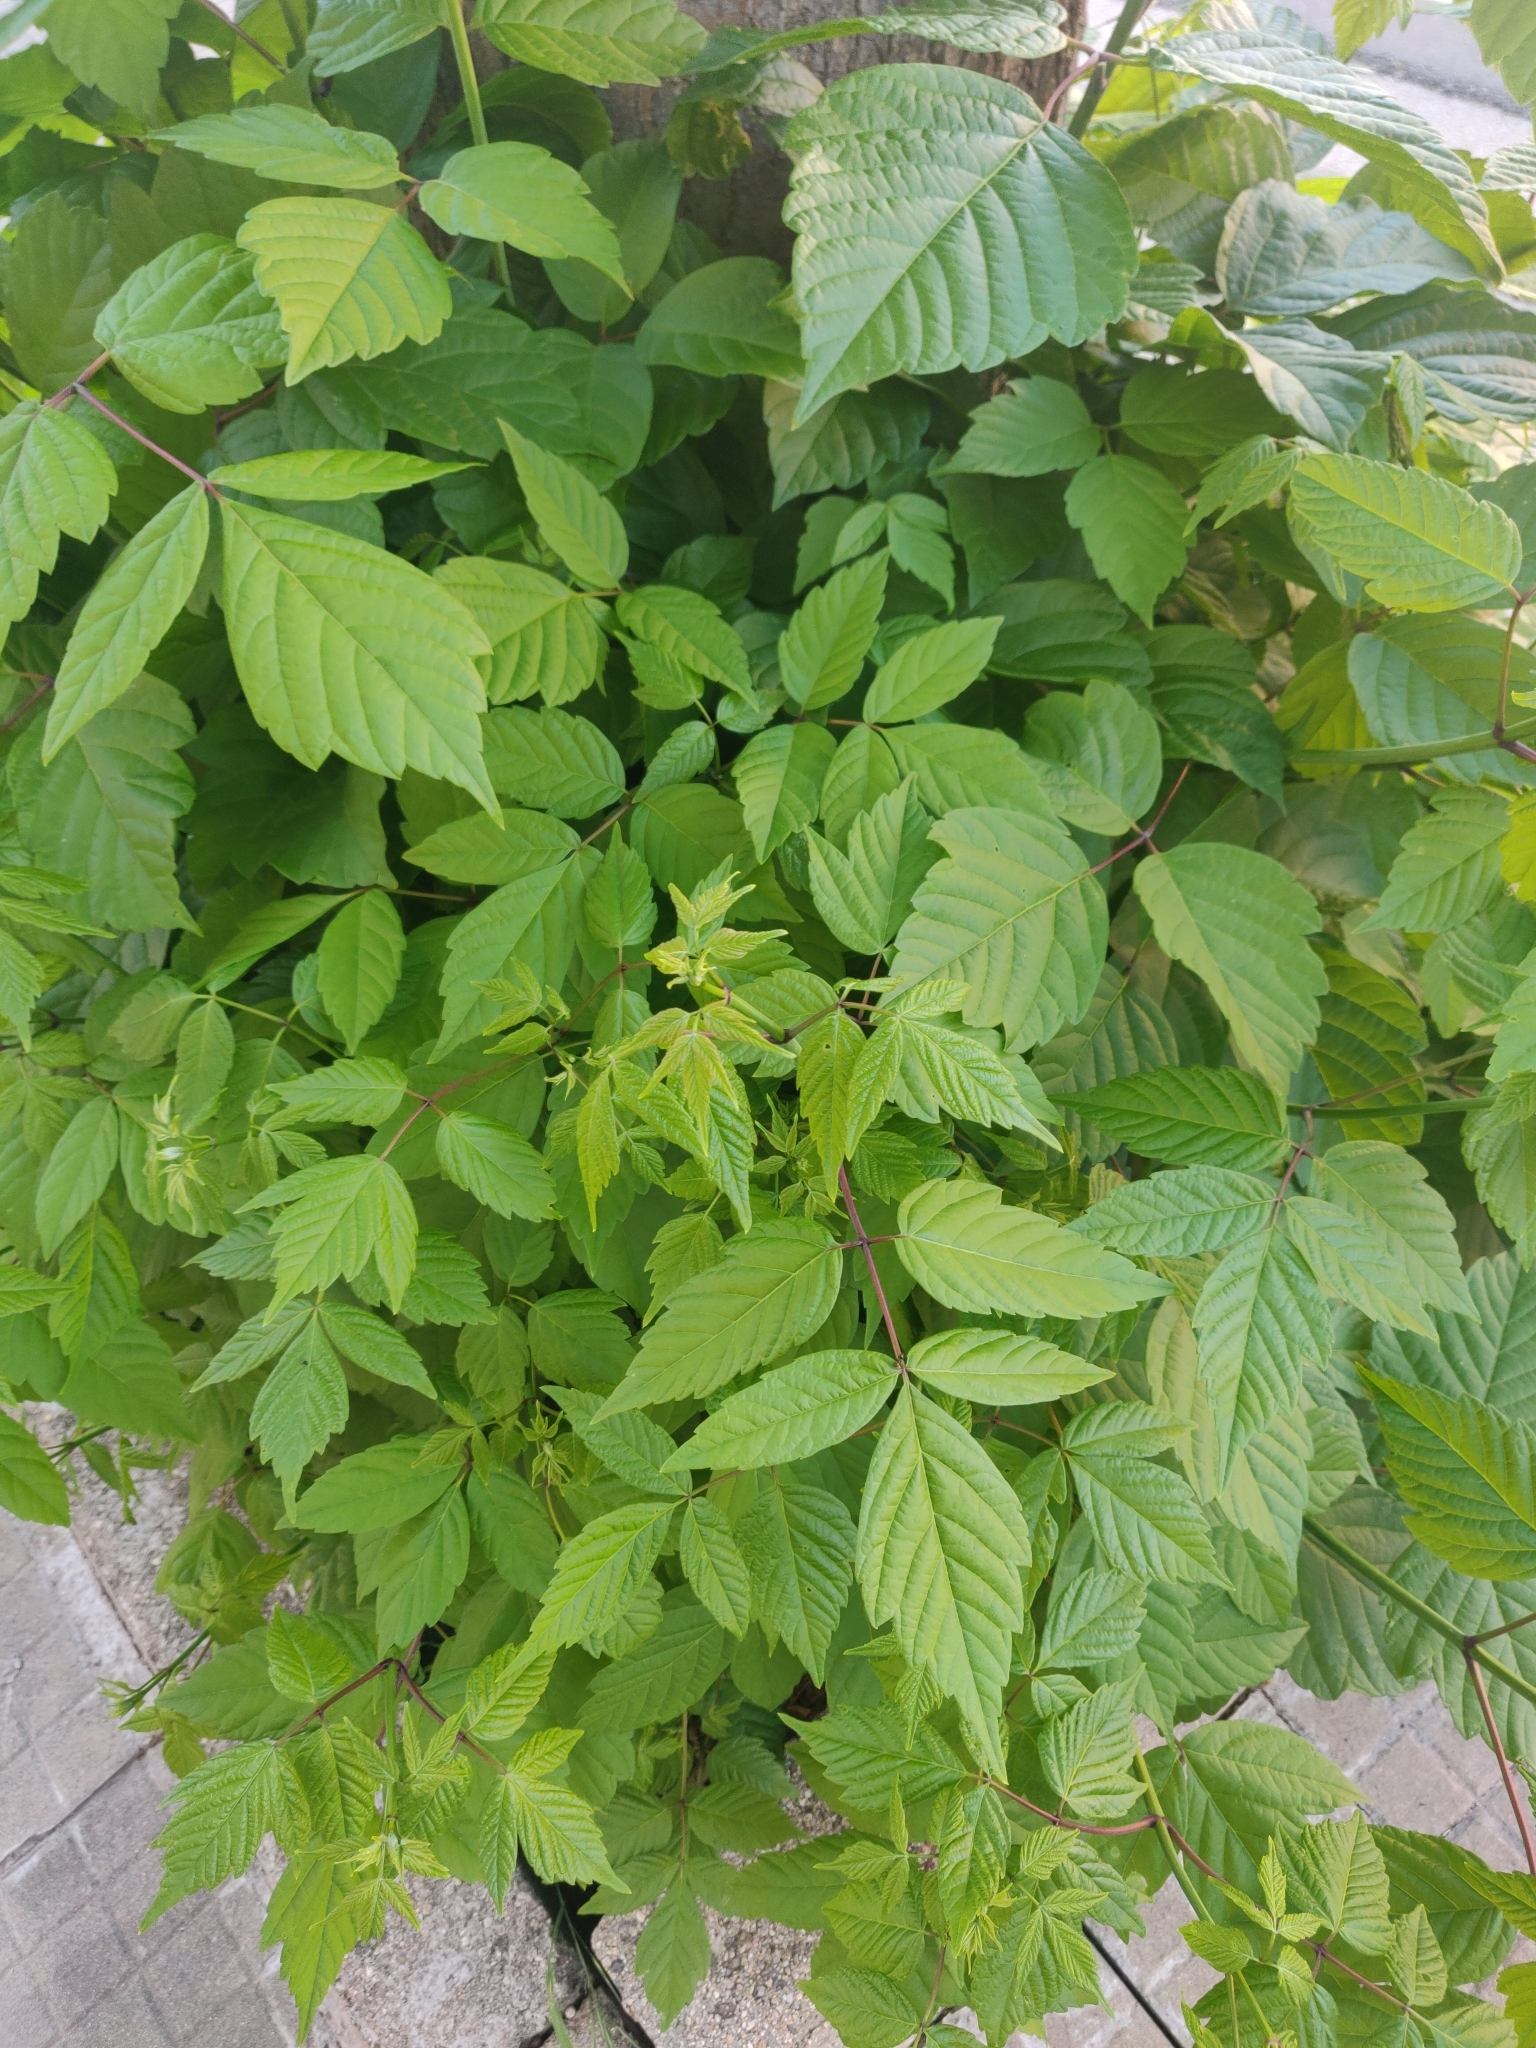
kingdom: Plantae
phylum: Tracheophyta
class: Magnoliopsida
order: Sapindales
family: Sapindaceae
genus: Acer
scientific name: Acer negundo
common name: Ashleaf maple
